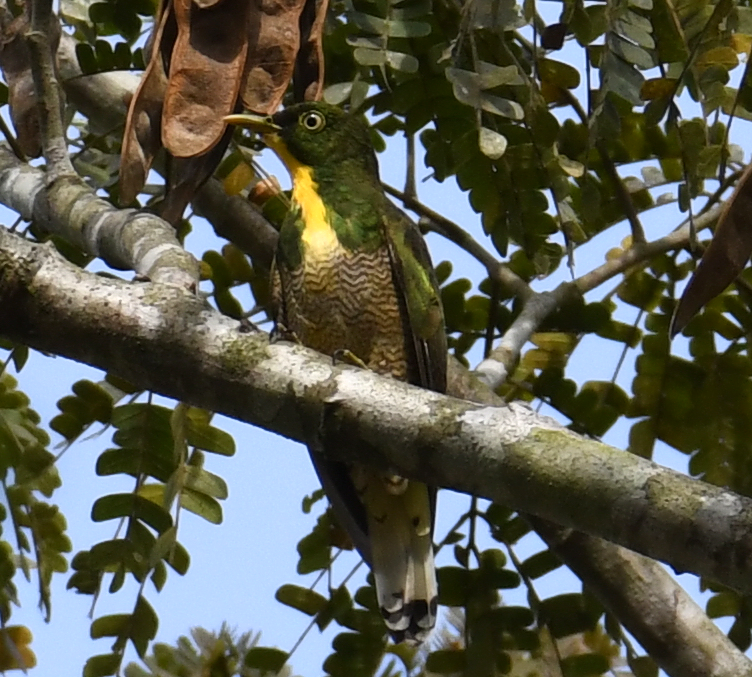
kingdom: Animalia
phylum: Chordata
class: Aves
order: Cuculiformes
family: Cuculidae
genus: Chrysococcyx
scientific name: Chrysococcyx flavigularis
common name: Yellow-throated cuckoo
